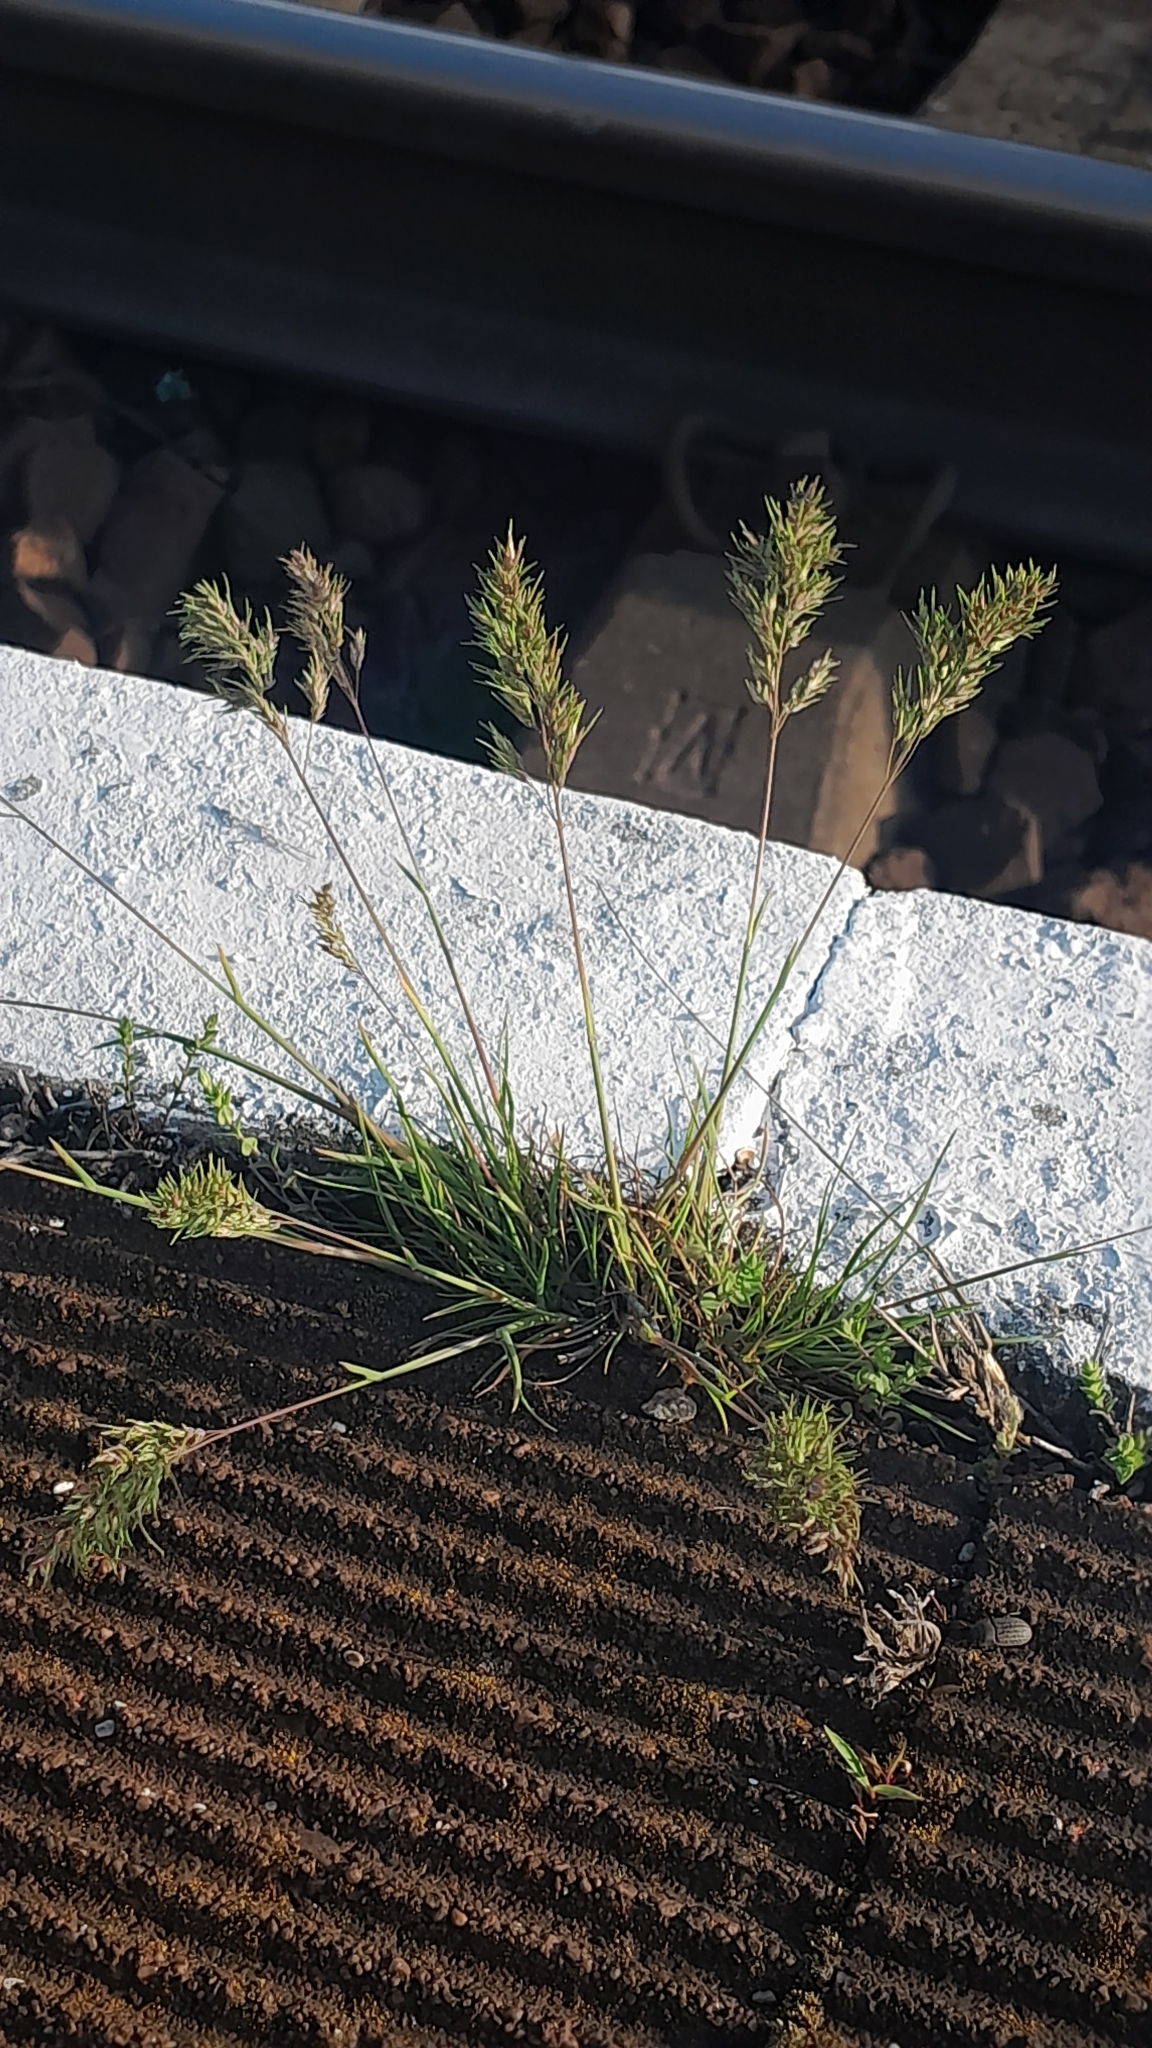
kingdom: Plantae
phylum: Tracheophyta
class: Liliopsida
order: Poales
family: Poaceae
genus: Poa
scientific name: Poa bulbosa
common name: Bulbous bluegrass
